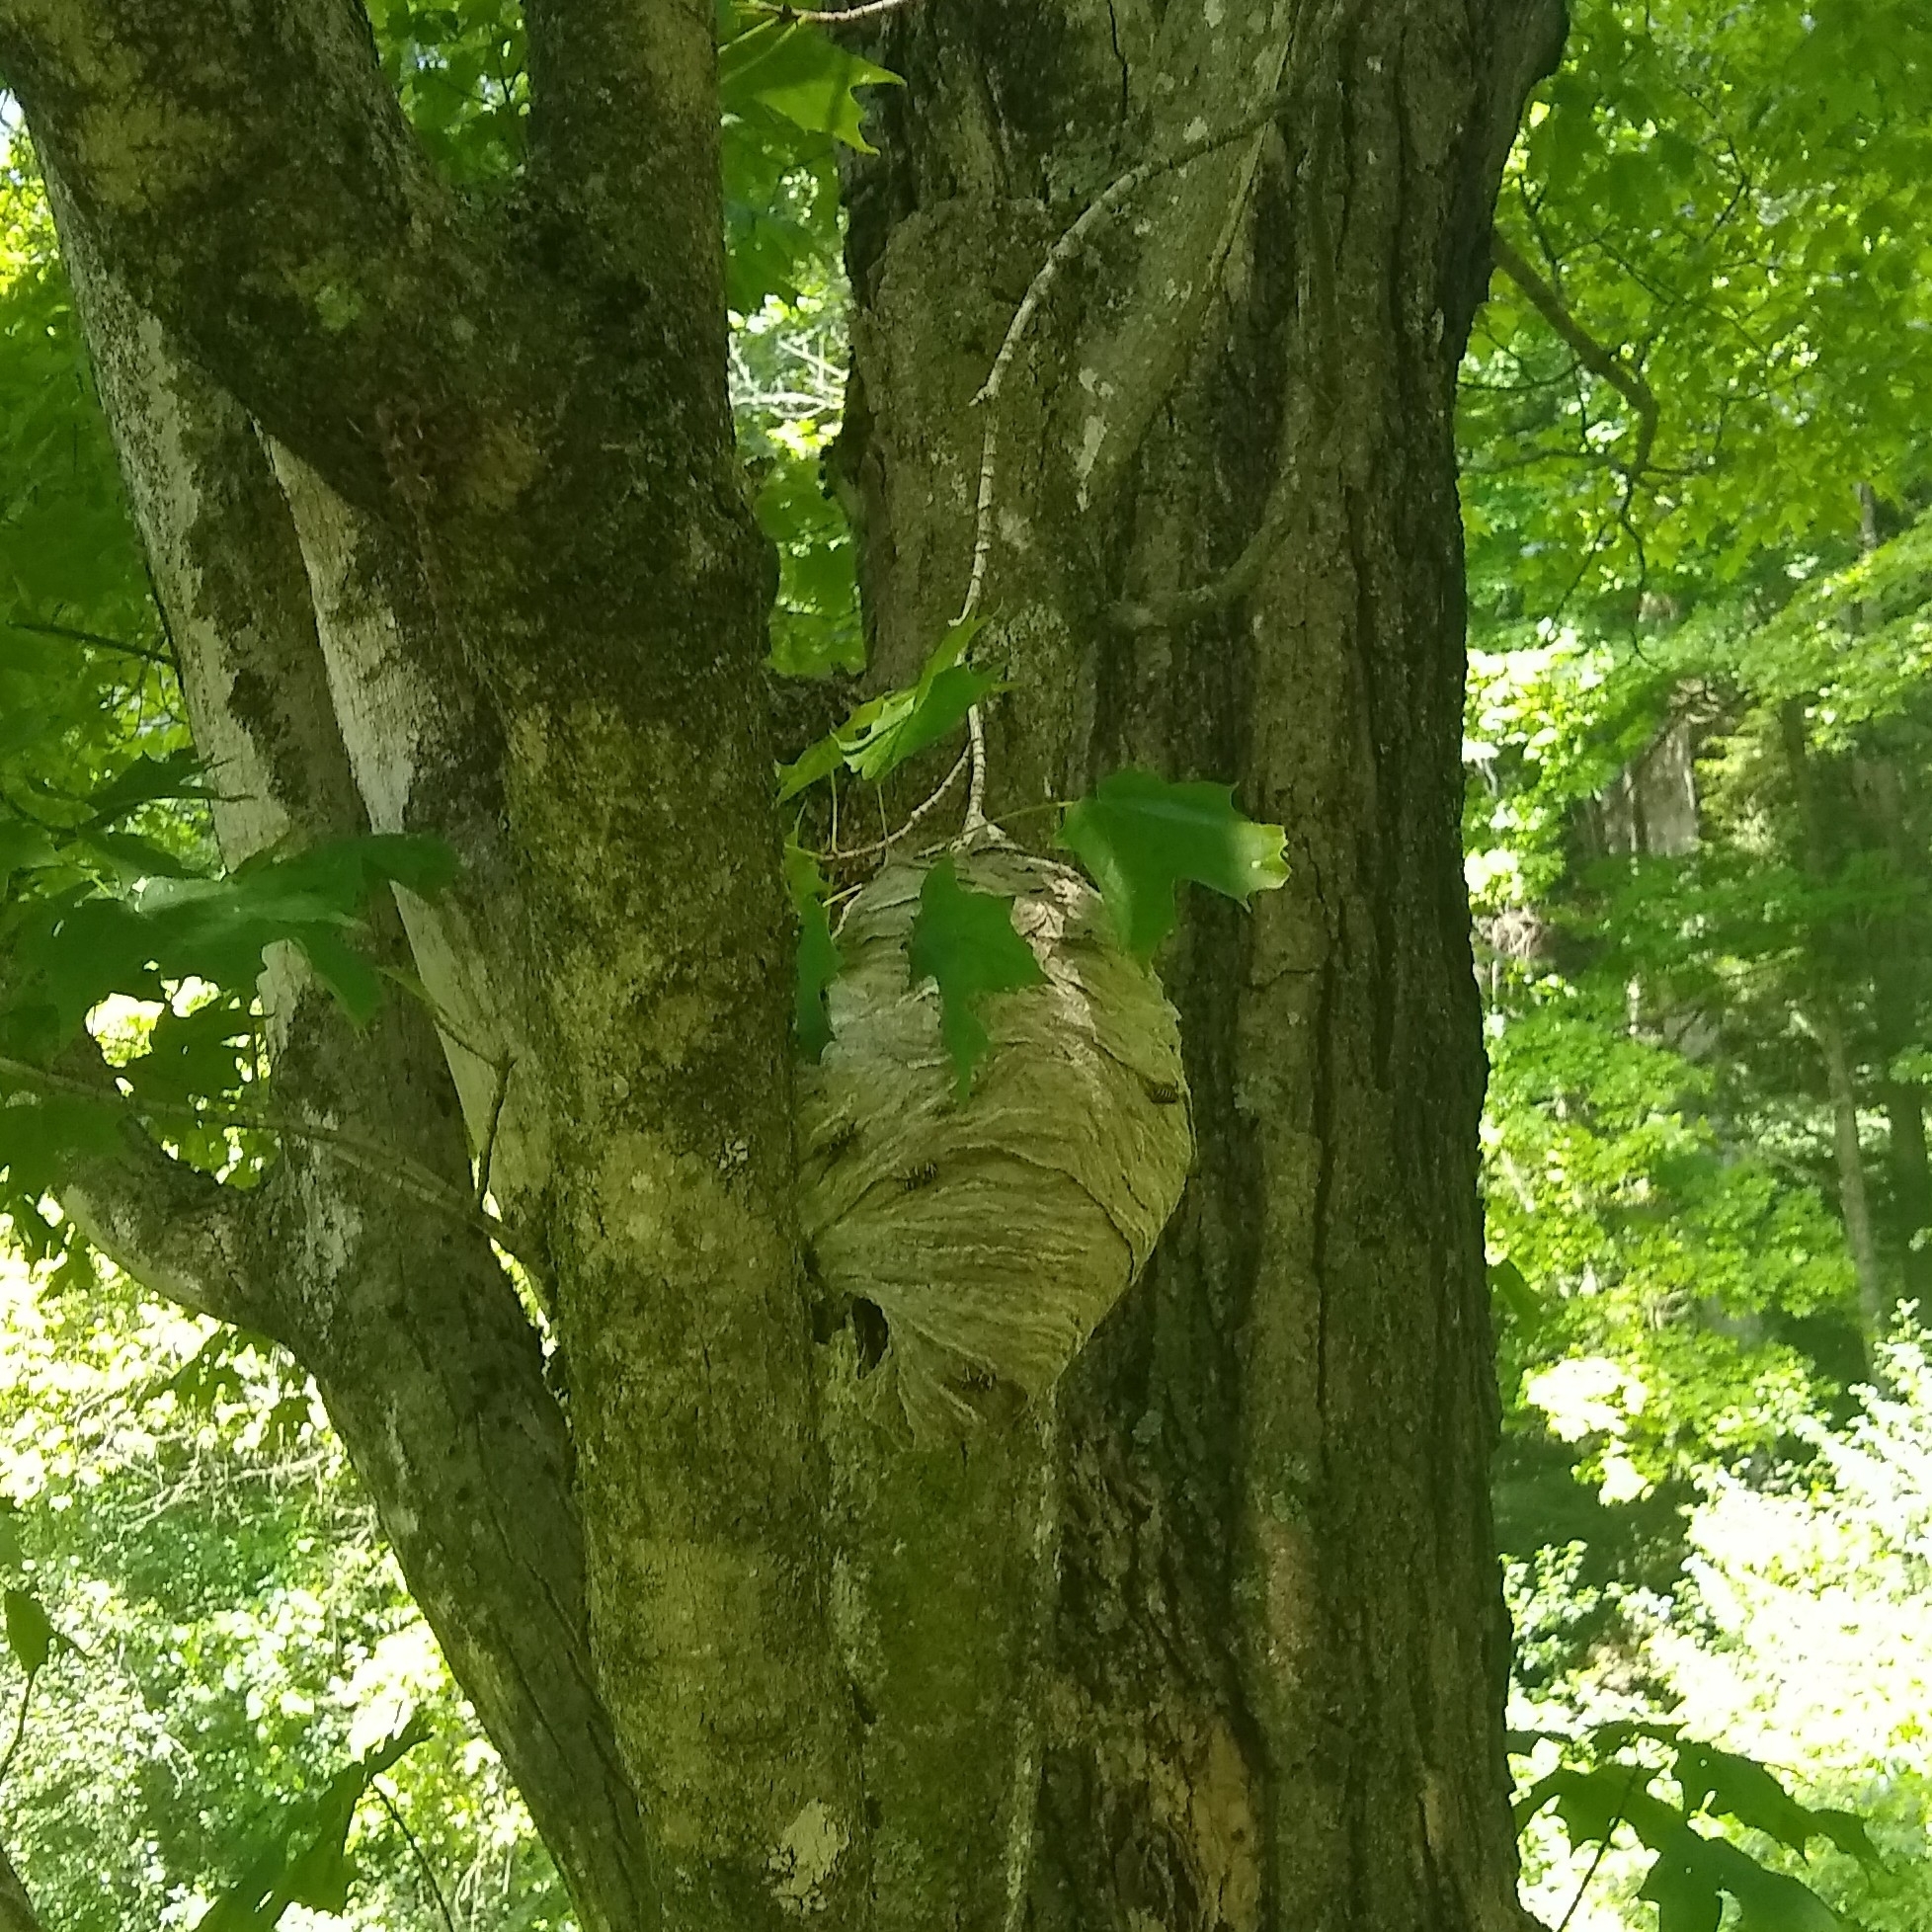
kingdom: Animalia
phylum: Arthropoda
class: Insecta
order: Hymenoptera
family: Vespidae
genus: Dolichovespula
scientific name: Dolichovespula arenaria
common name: Aerial yellowjacket
